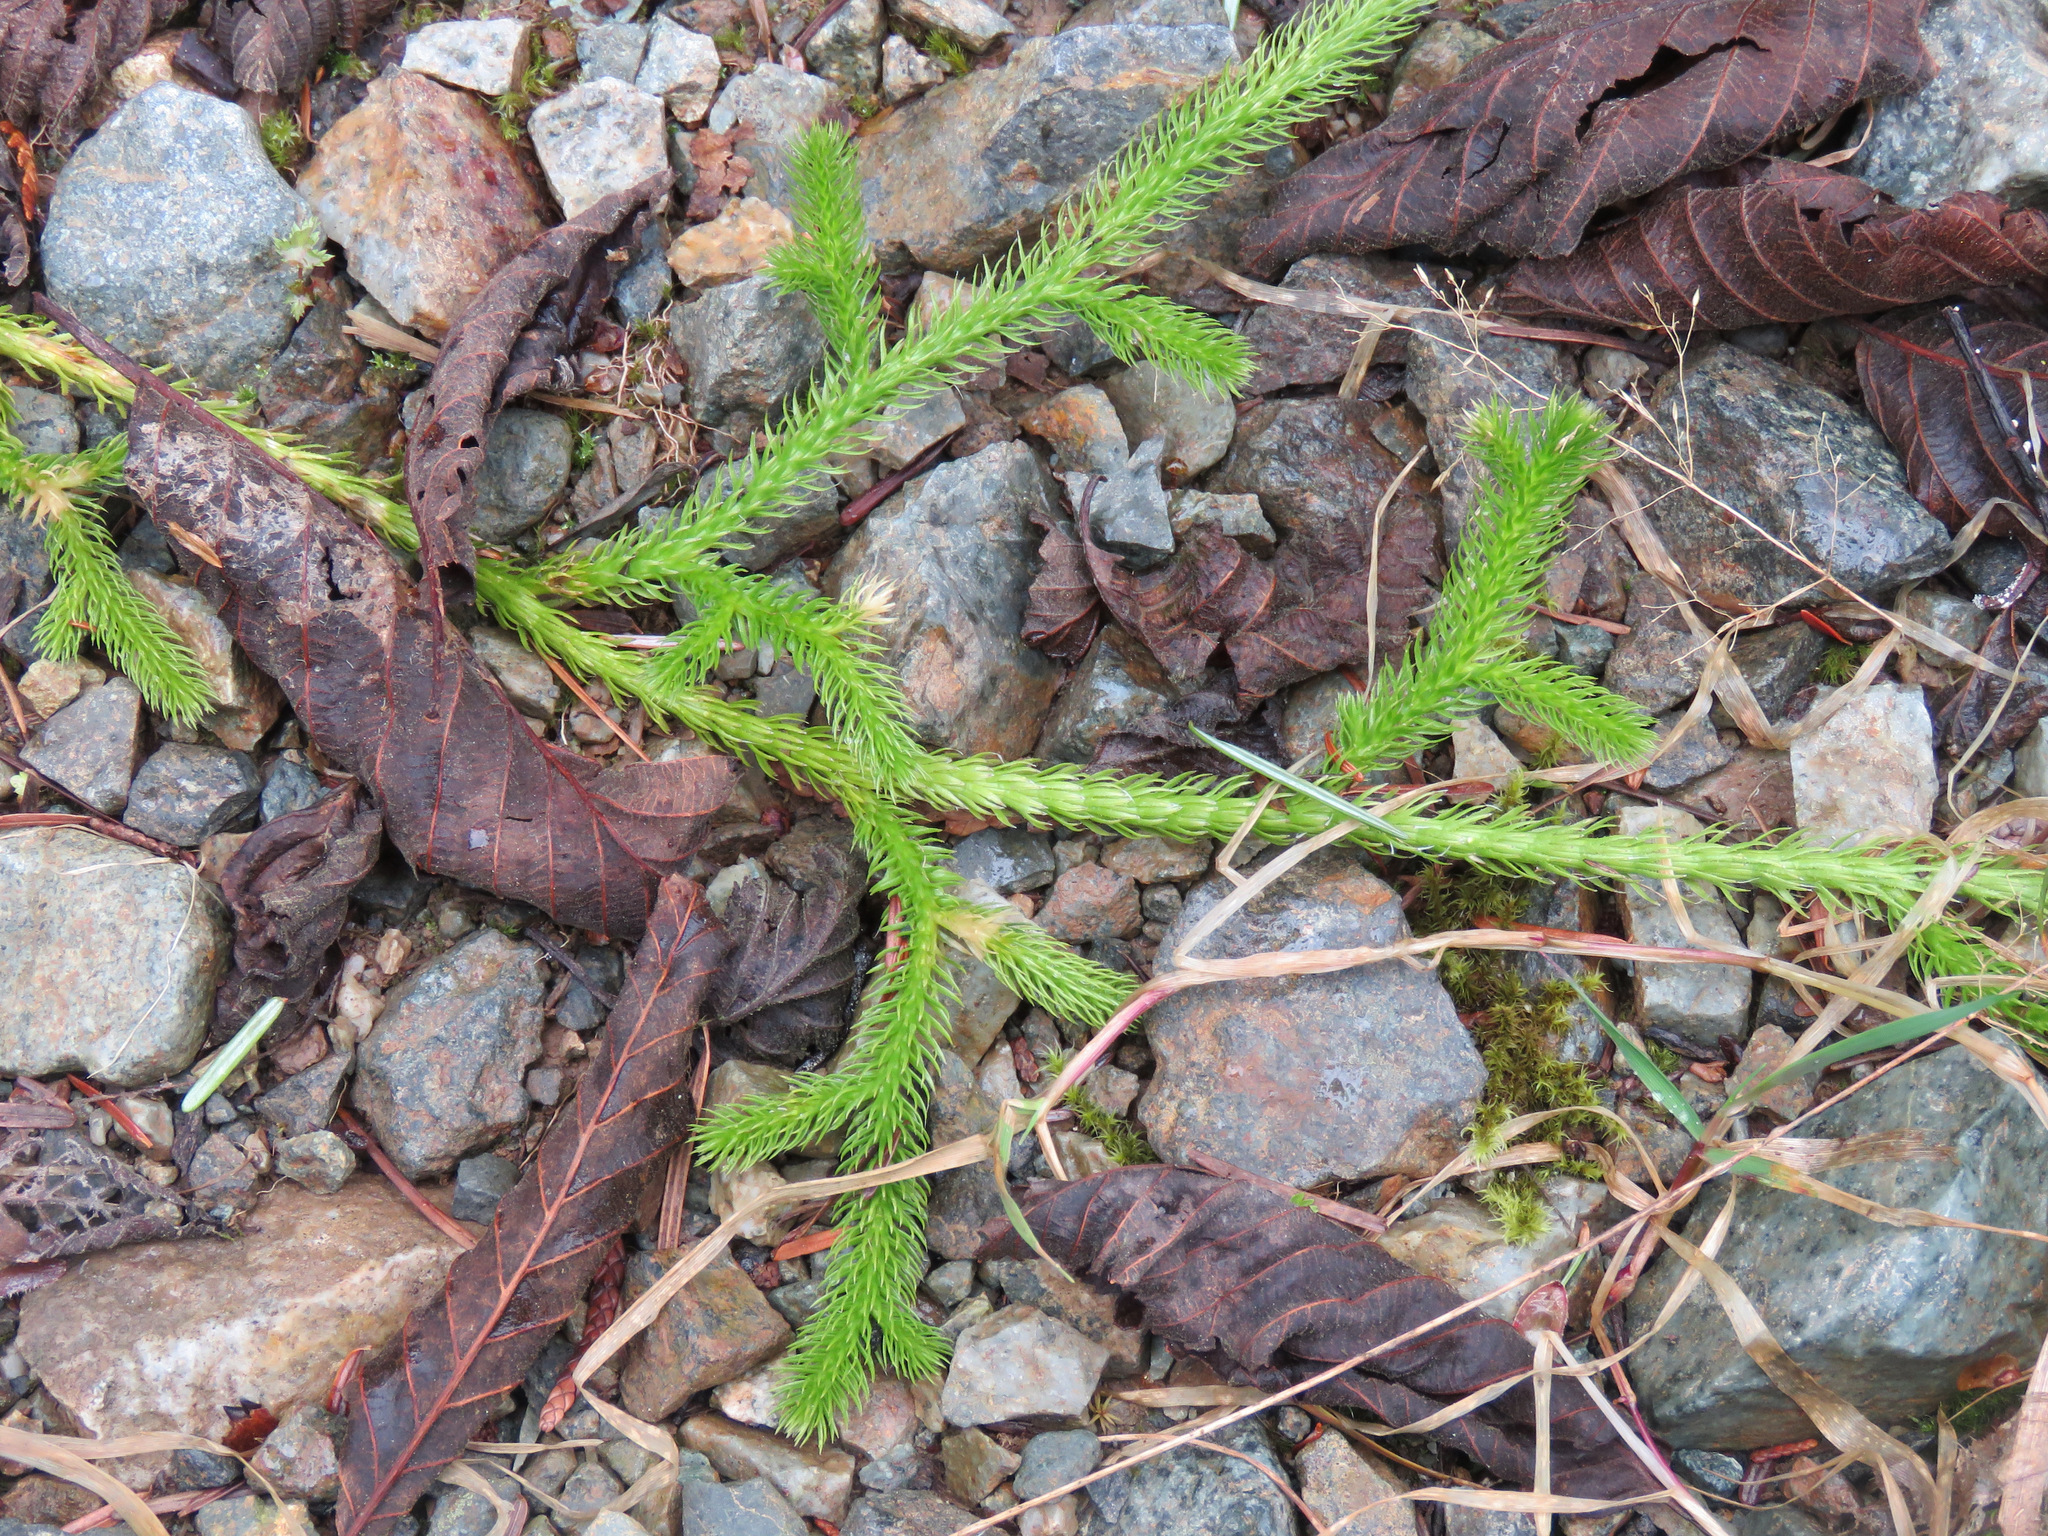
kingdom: Plantae
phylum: Tracheophyta
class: Lycopodiopsida
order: Lycopodiales
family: Lycopodiaceae
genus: Lycopodium
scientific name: Lycopodium clavatum
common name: Stag's-horn clubmoss
